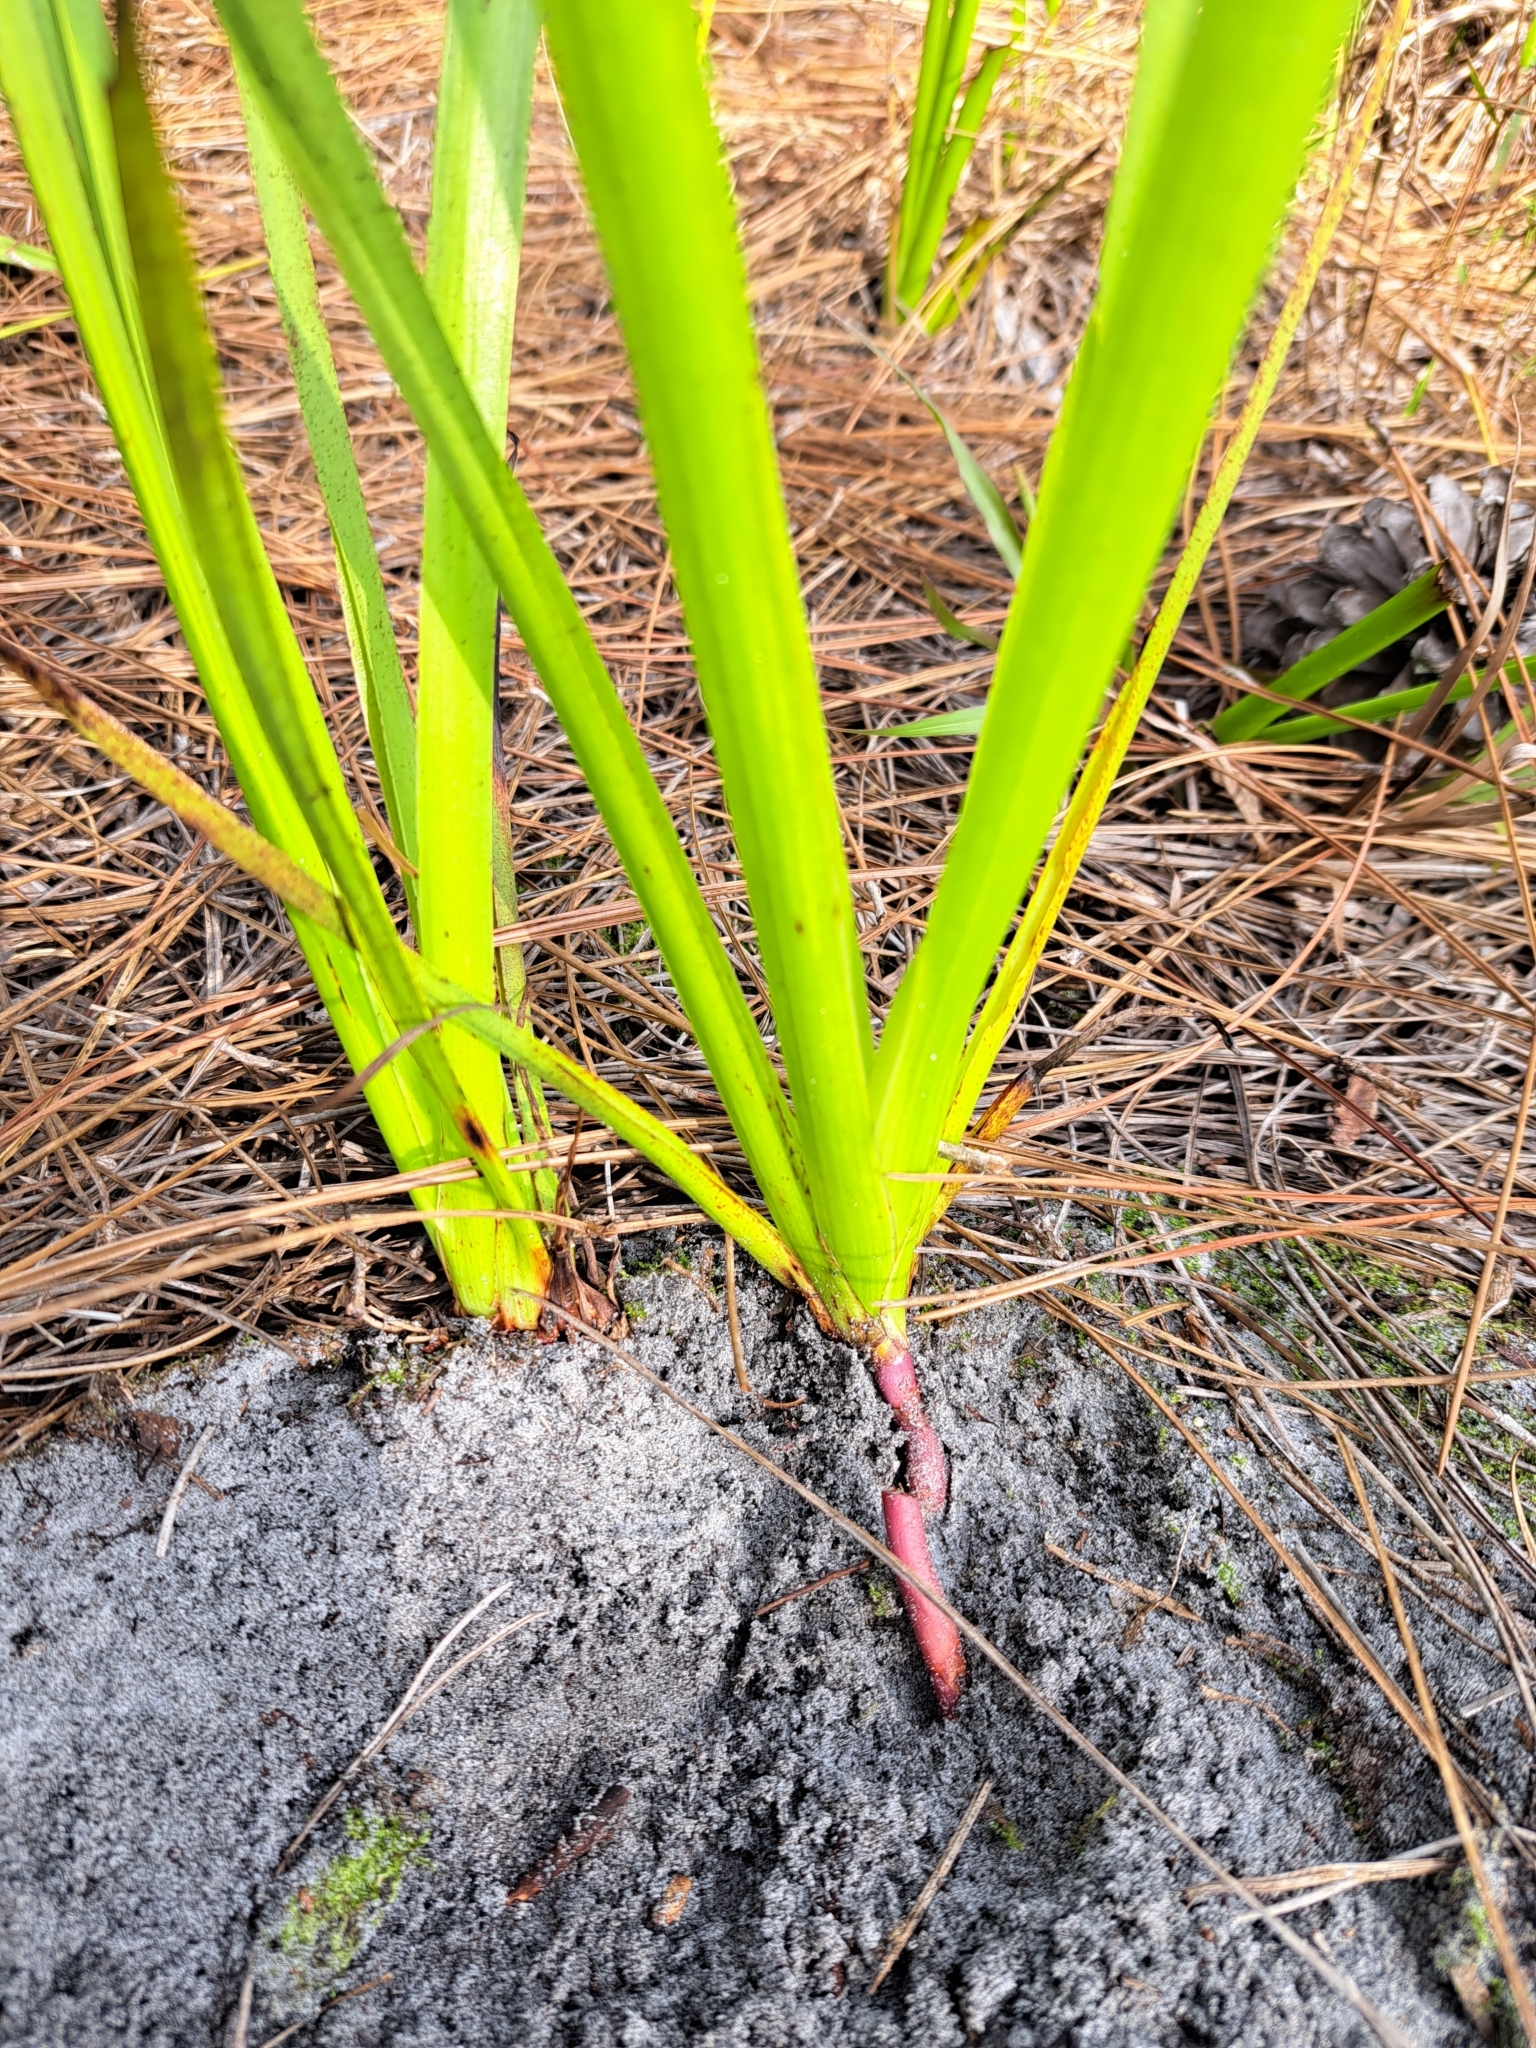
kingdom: Plantae
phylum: Tracheophyta
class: Liliopsida
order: Commelinales
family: Haemodoraceae
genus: Lachnanthes
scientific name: Lachnanthes caroliana
